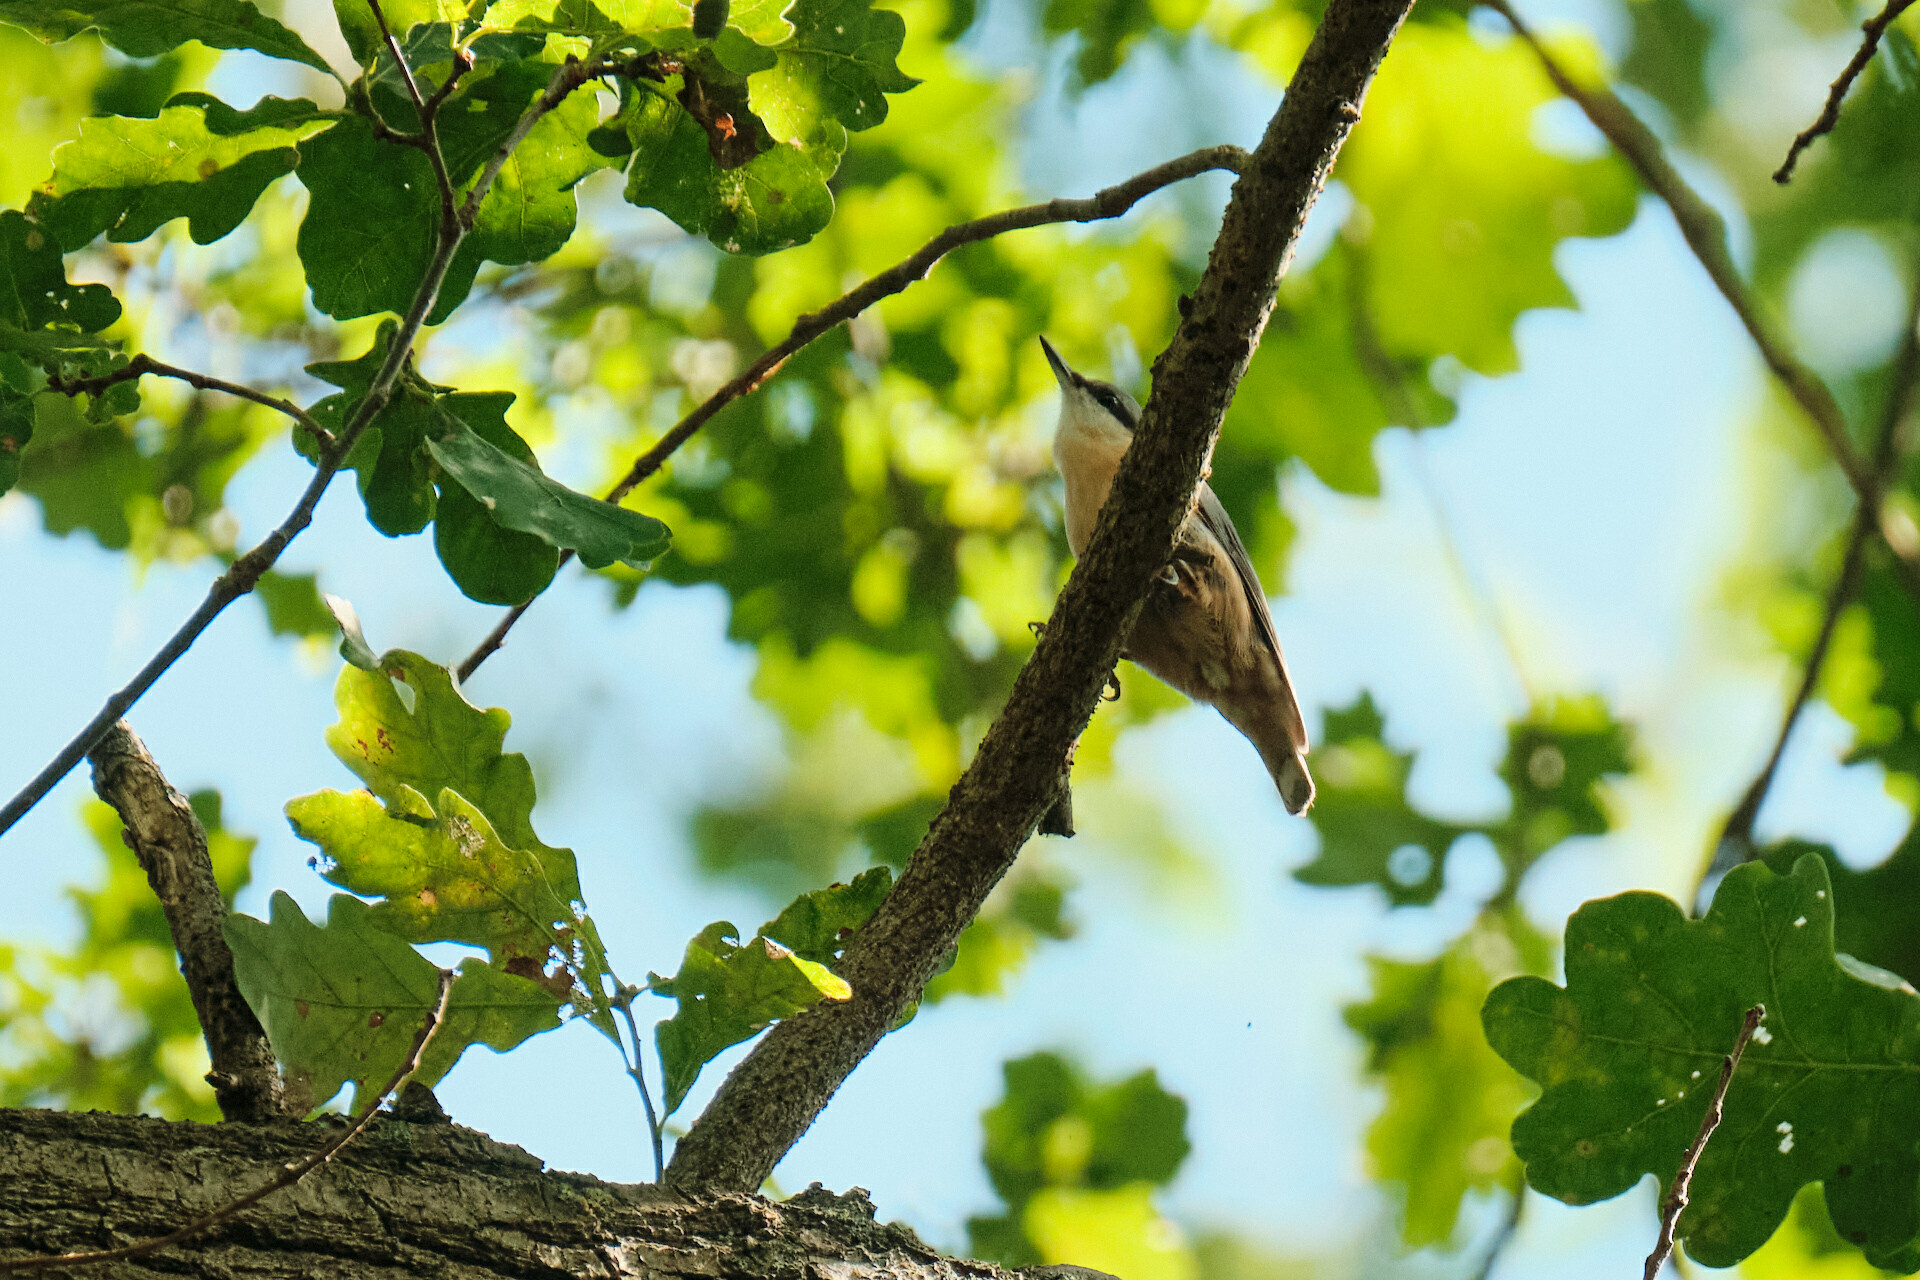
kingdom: Animalia
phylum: Chordata
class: Aves
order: Passeriformes
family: Sittidae
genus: Sitta
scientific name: Sitta europaea
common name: Eurasian nuthatch
